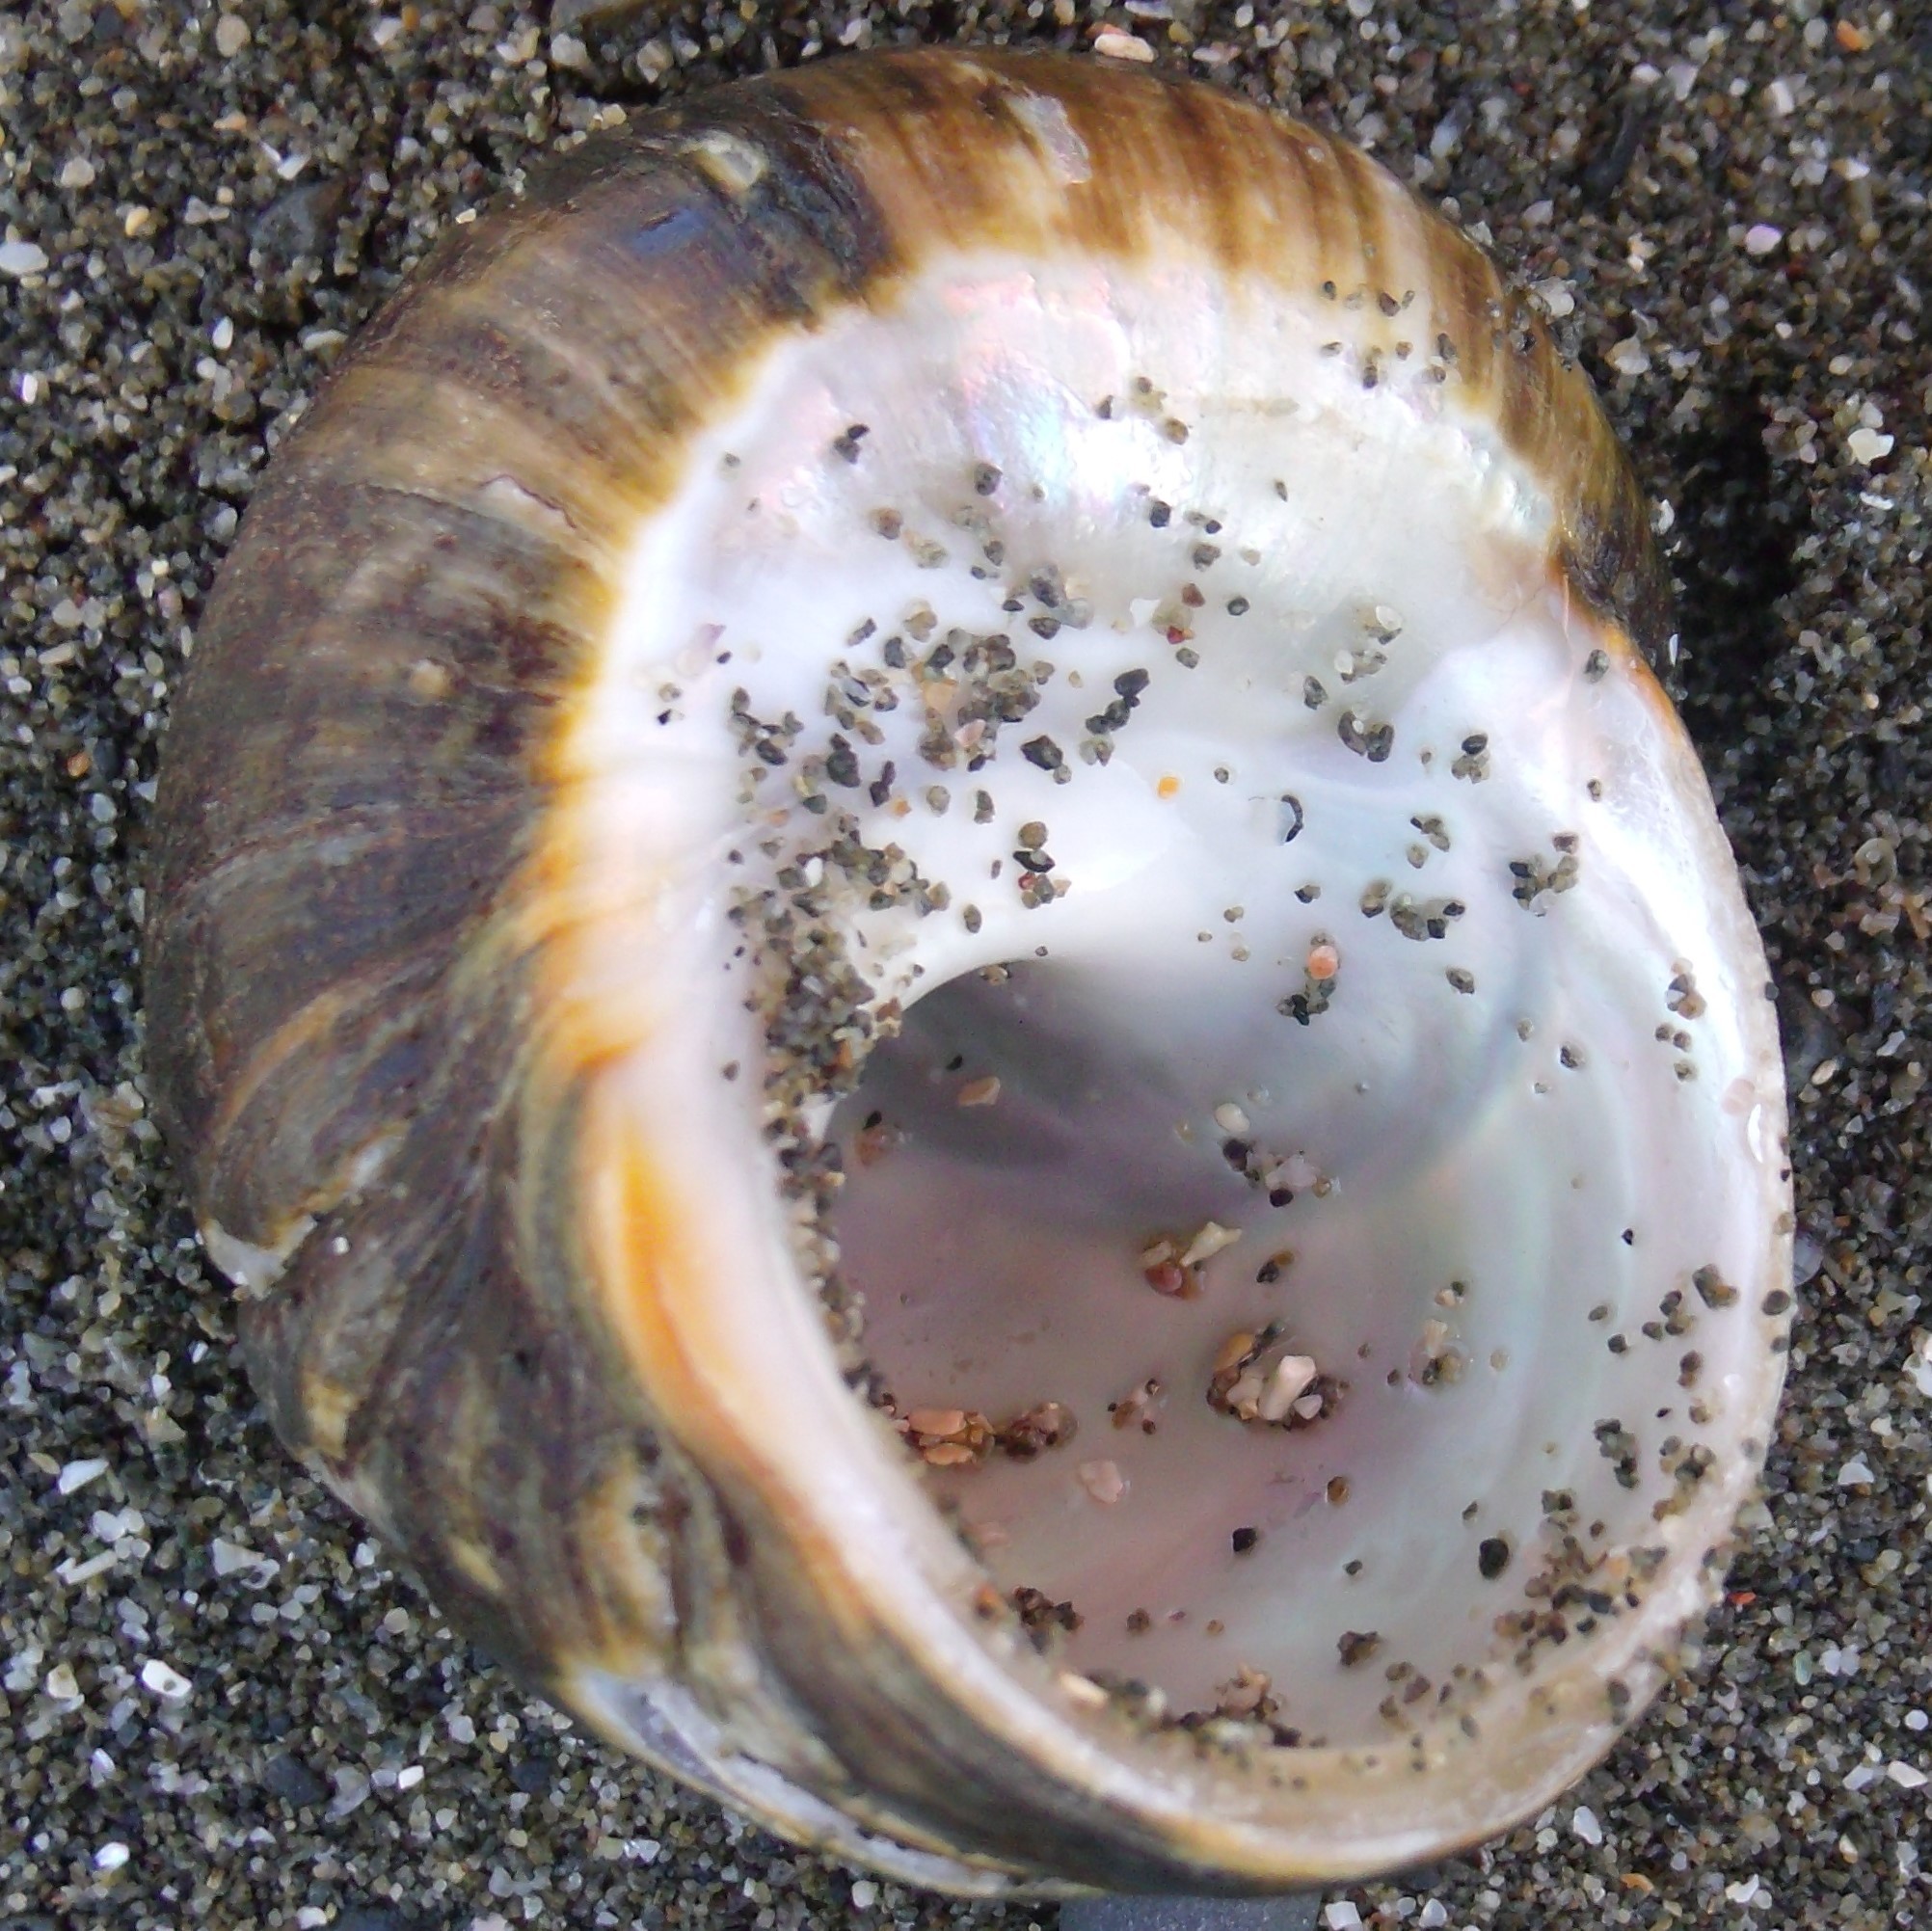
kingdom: Animalia
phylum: Mollusca
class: Gastropoda
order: Trochida
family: Turbinidae
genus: Lunella
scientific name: Lunella smaragda
